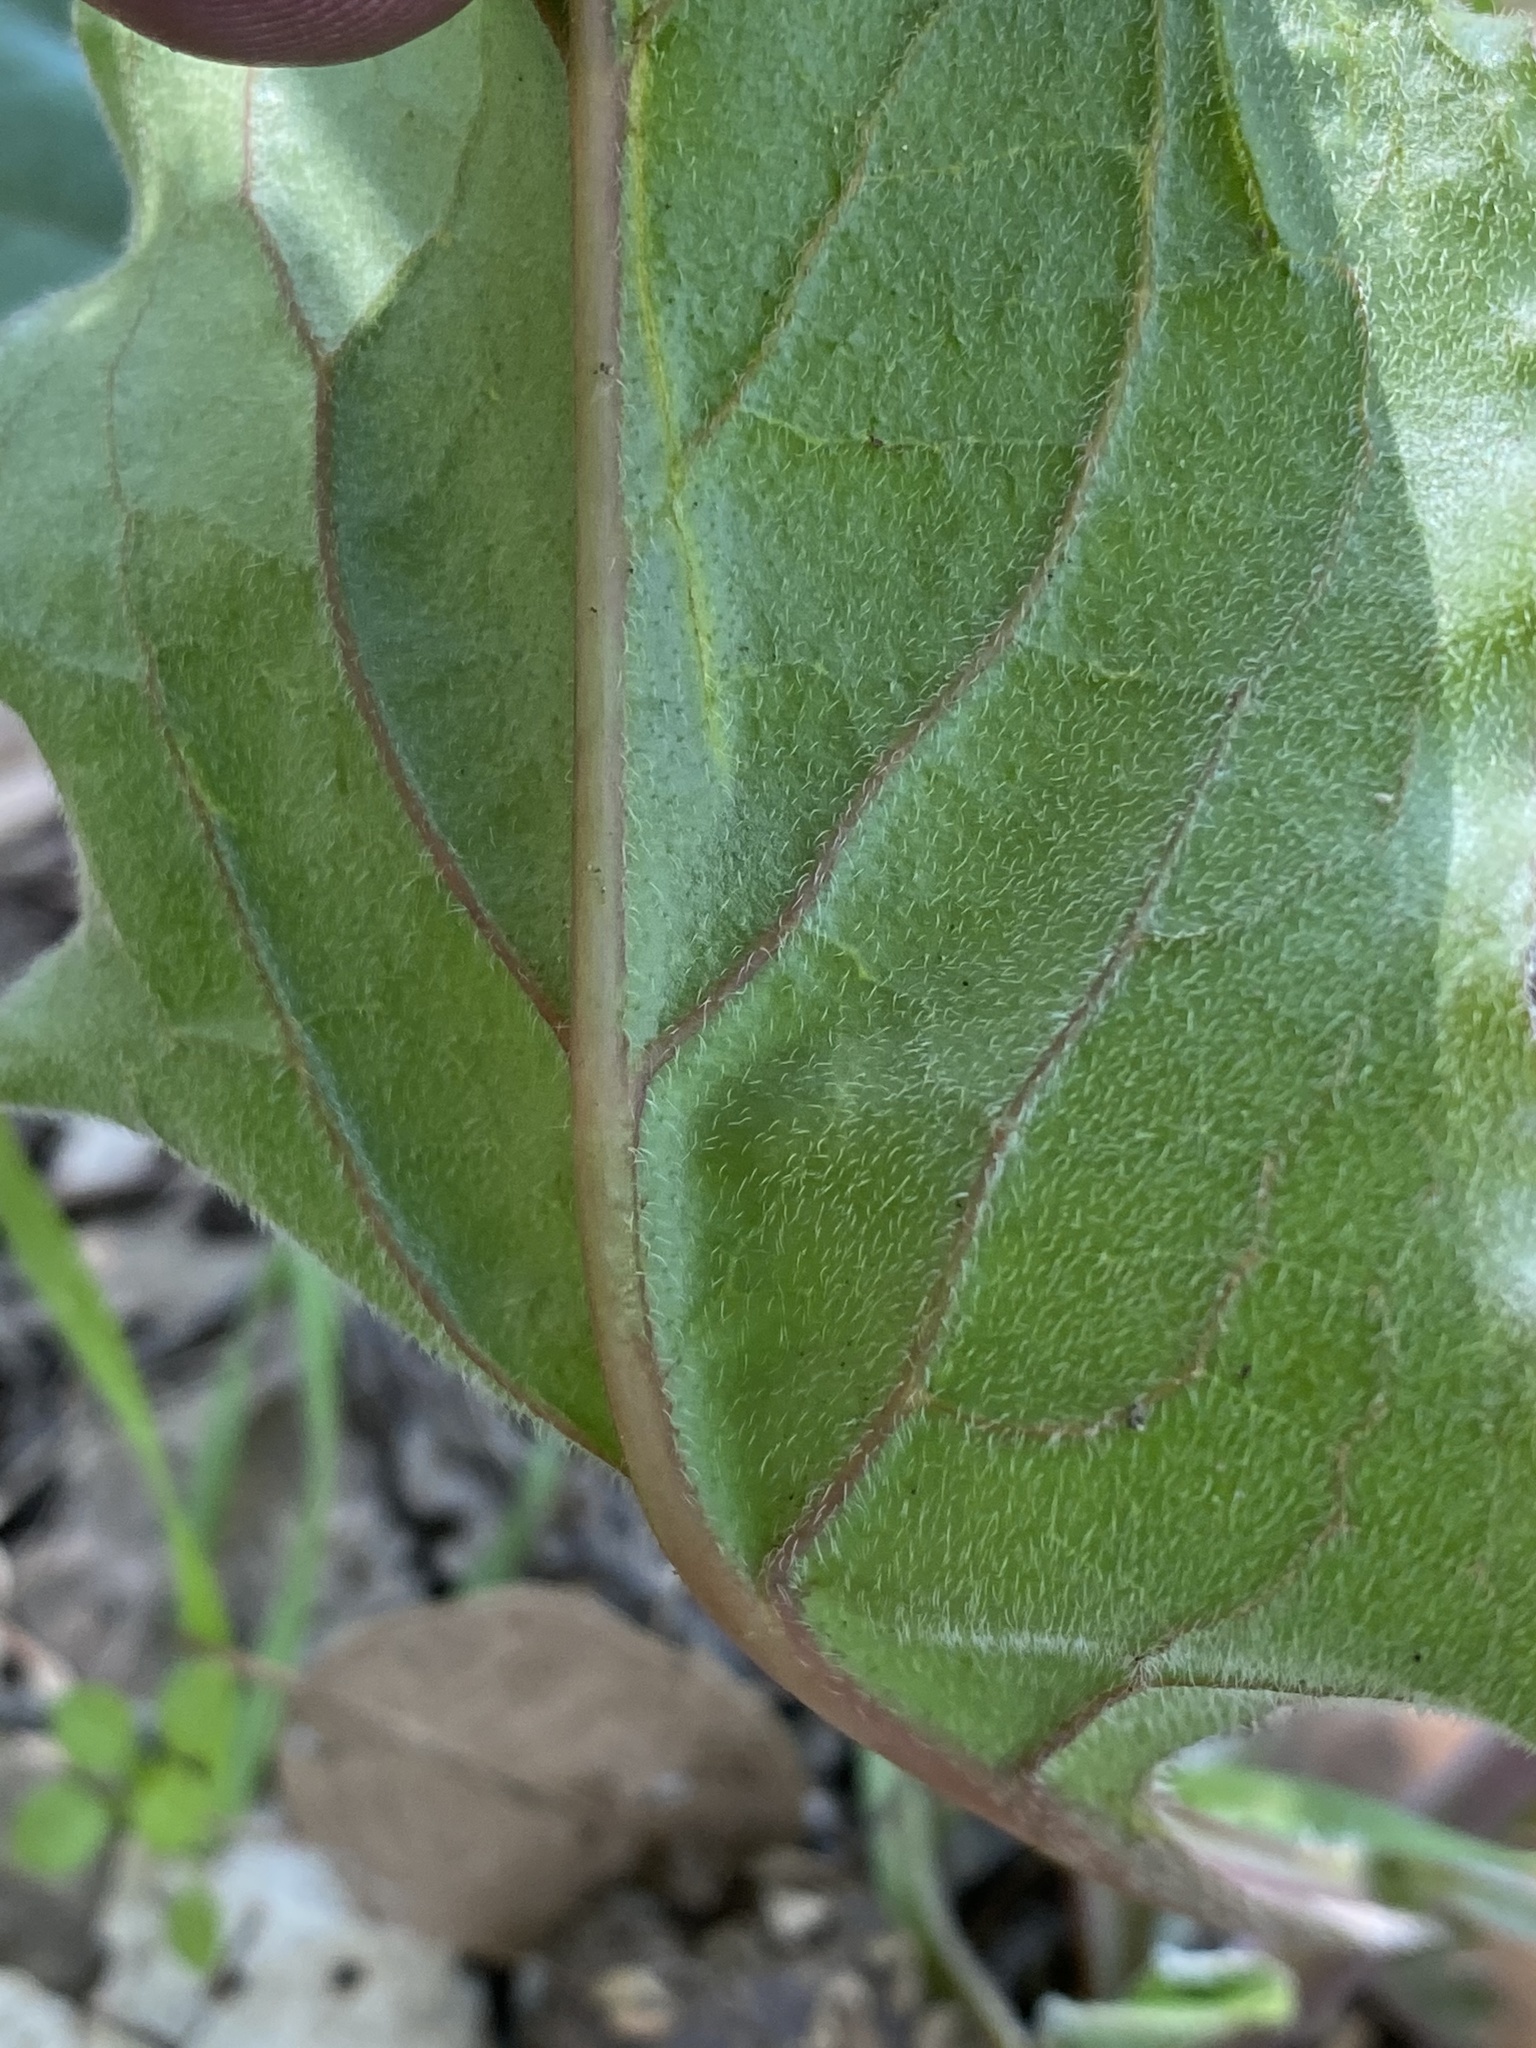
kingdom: Plantae
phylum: Tracheophyta
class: Magnoliopsida
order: Boraginales
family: Boraginaceae
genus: Adelinia
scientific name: Adelinia grande
